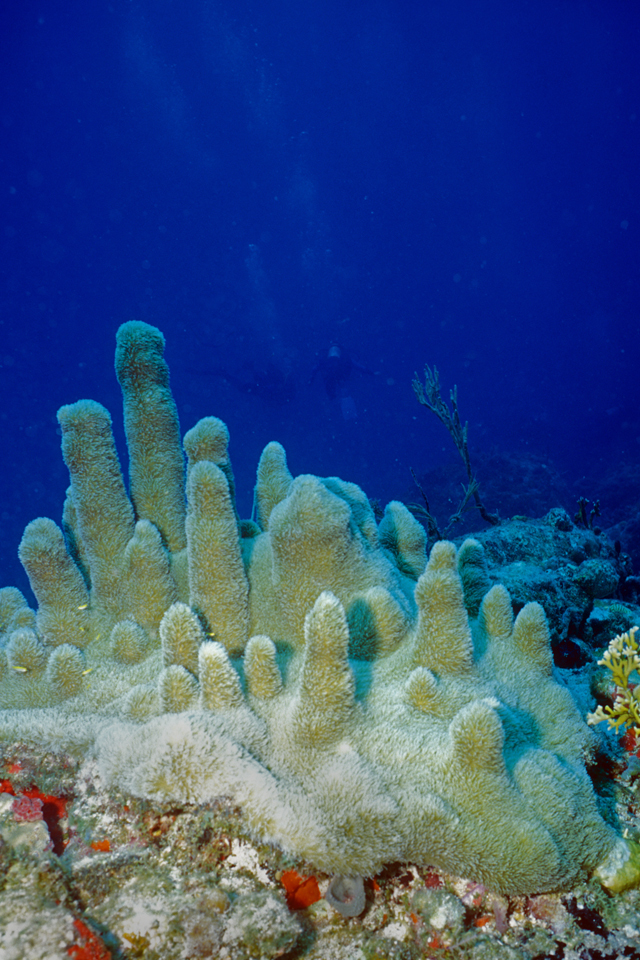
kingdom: Animalia
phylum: Cnidaria
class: Anthozoa
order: Scleractinia
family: Meandrinidae
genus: Dendrogyra
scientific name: Dendrogyra cylindrus
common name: Pillar coral
